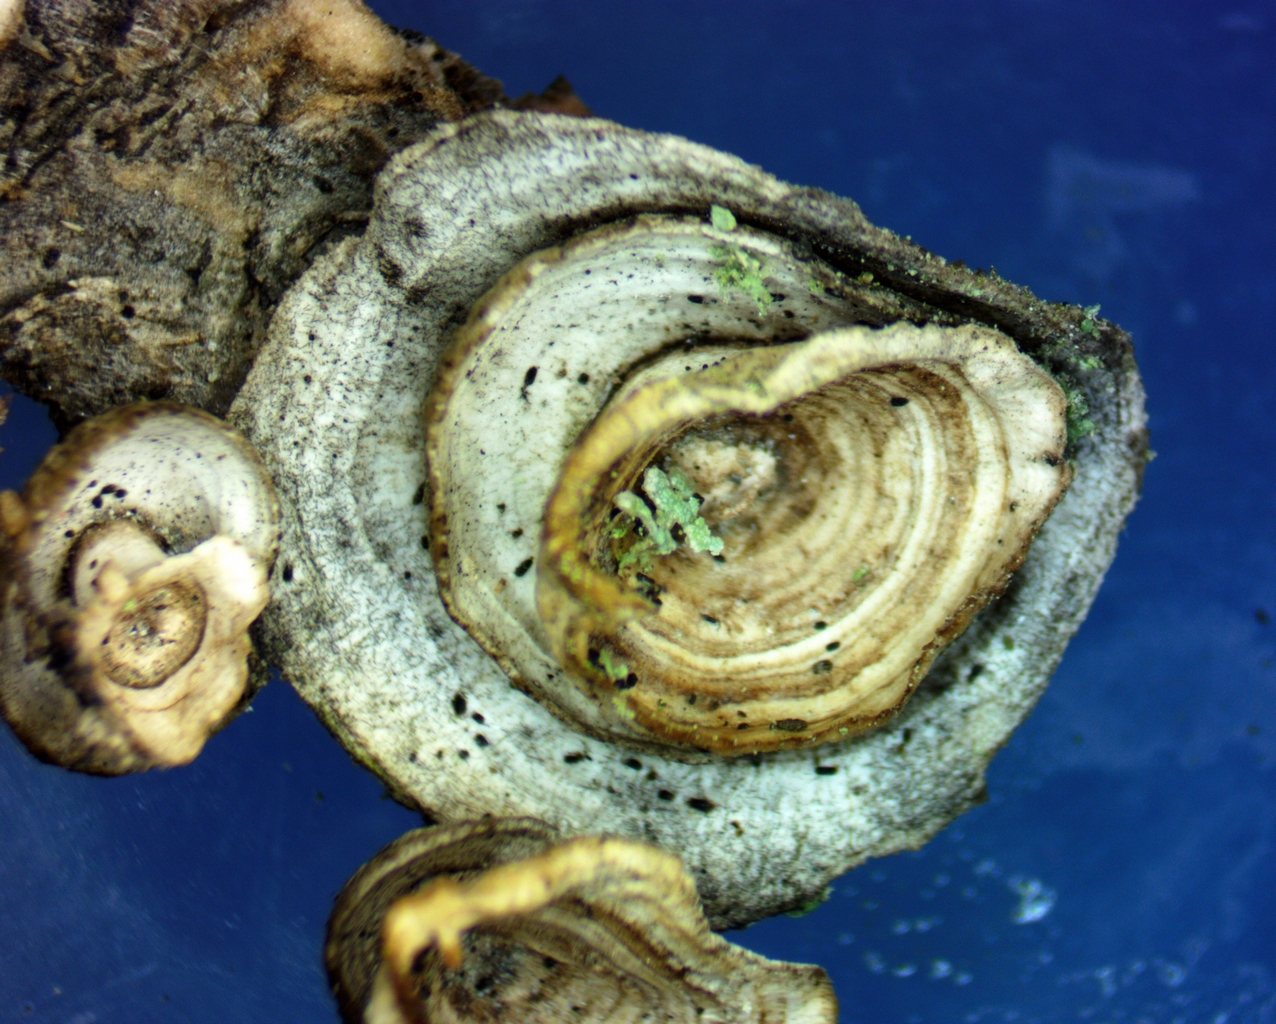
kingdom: Fungi
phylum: Basidiomycota
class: Agaricomycetes
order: Polyporales
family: Polyporaceae
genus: Poronidulus
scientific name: Poronidulus conchifer
